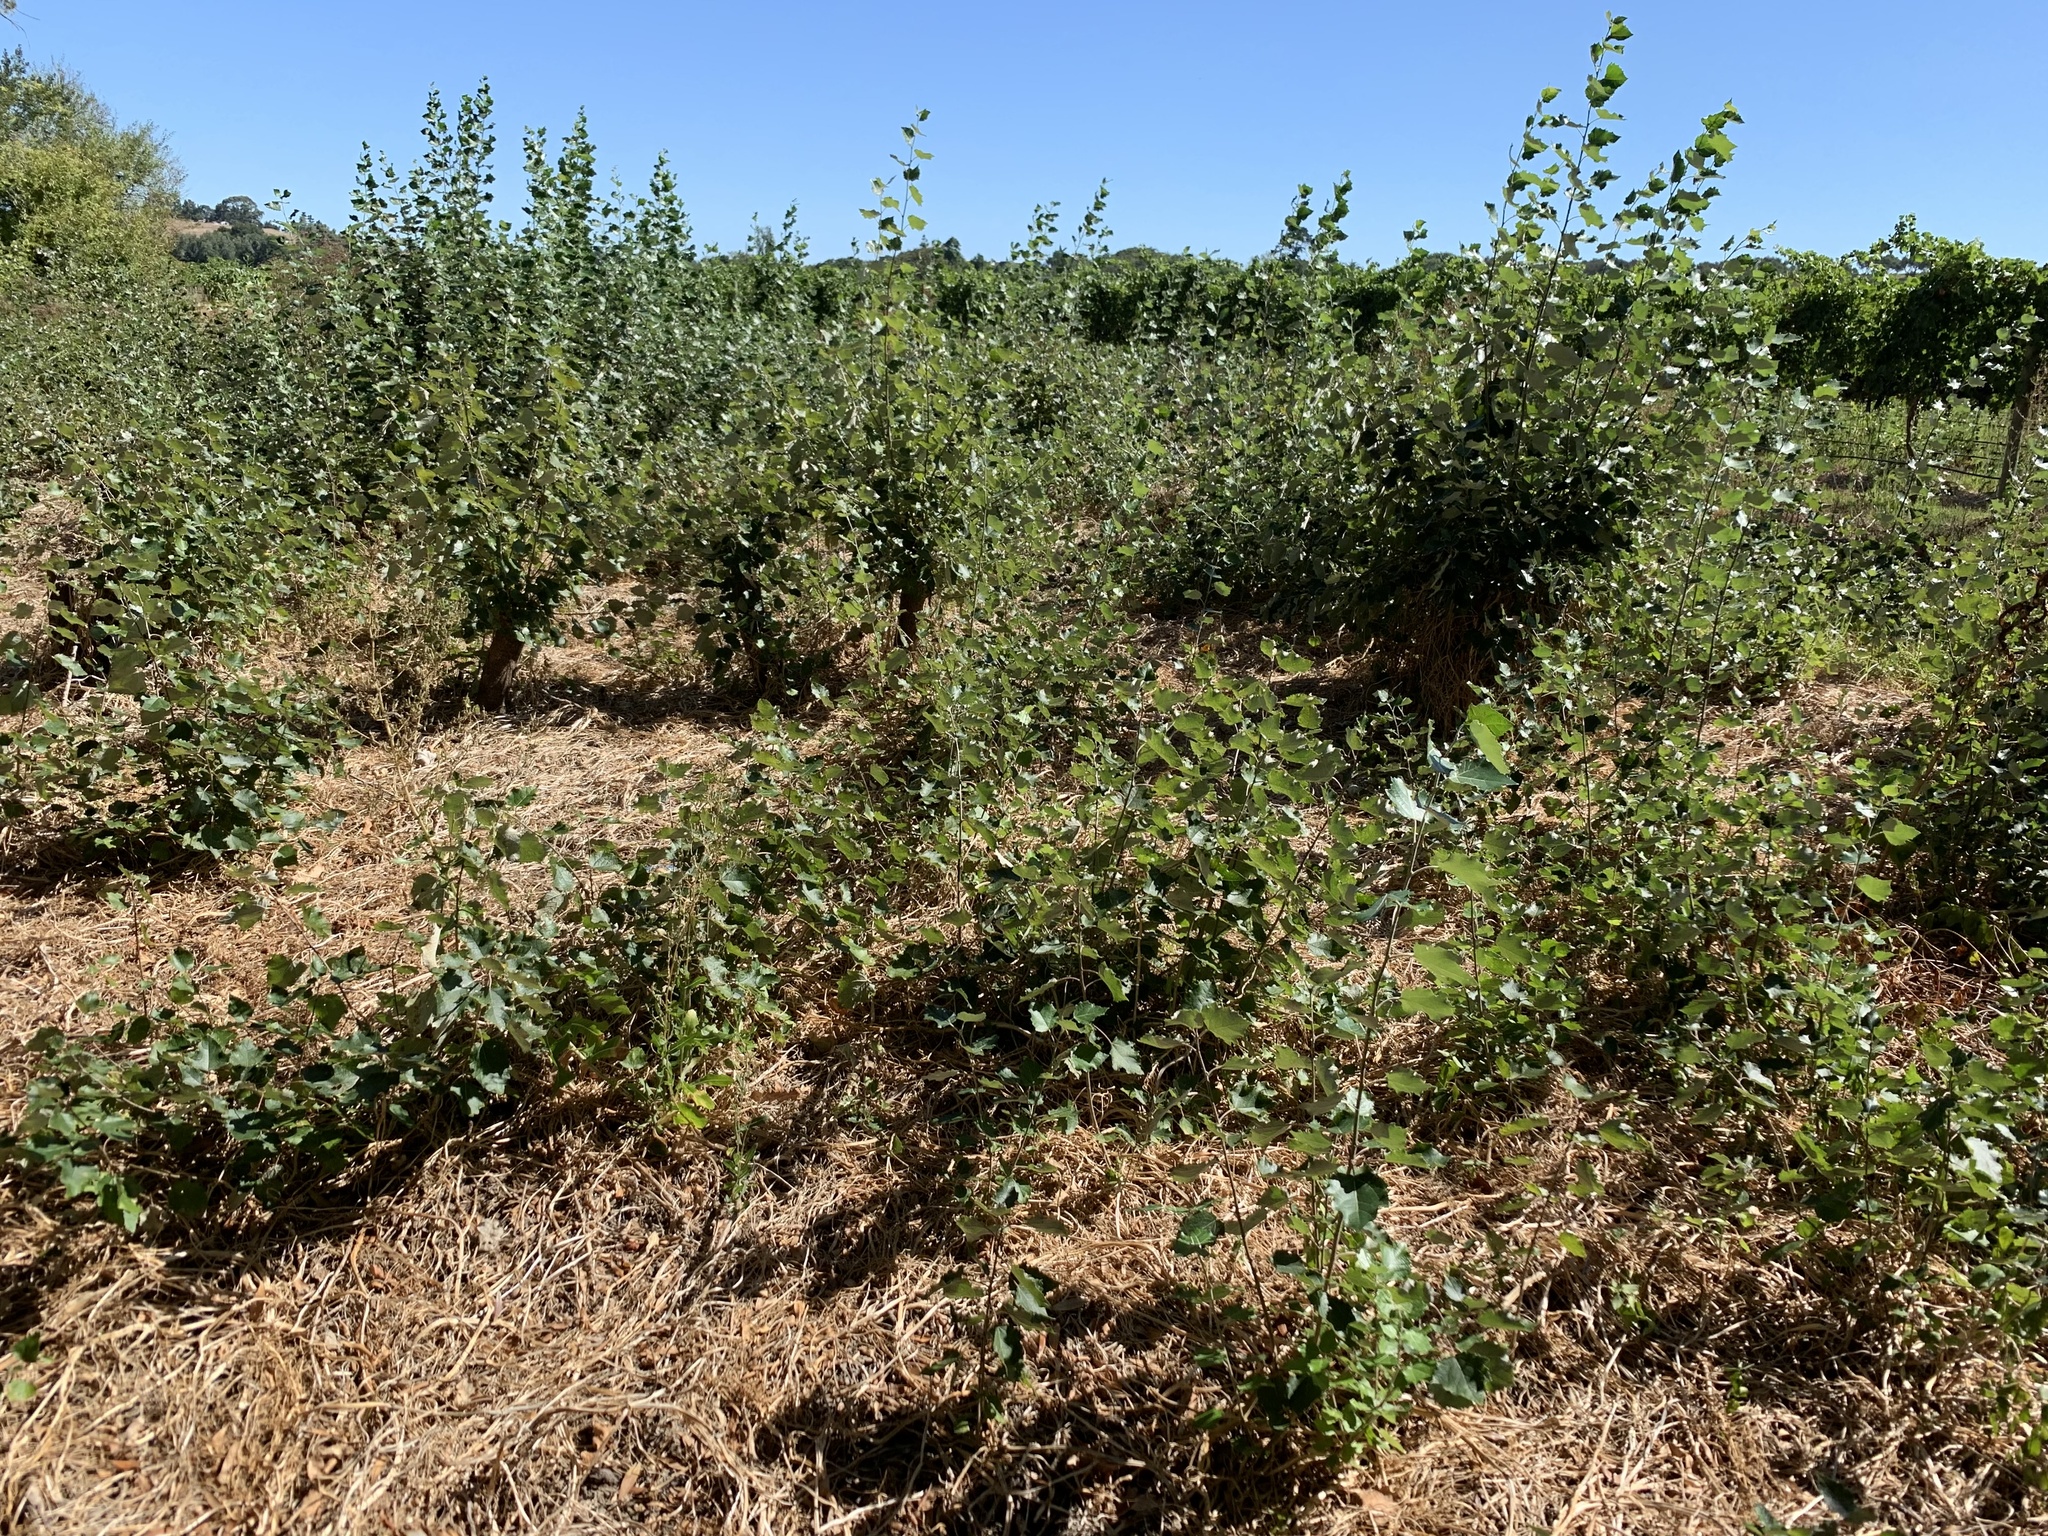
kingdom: Plantae
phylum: Tracheophyta
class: Magnoliopsida
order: Malpighiales
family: Salicaceae
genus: Populus
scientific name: Populus canescens
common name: Gray poplar
